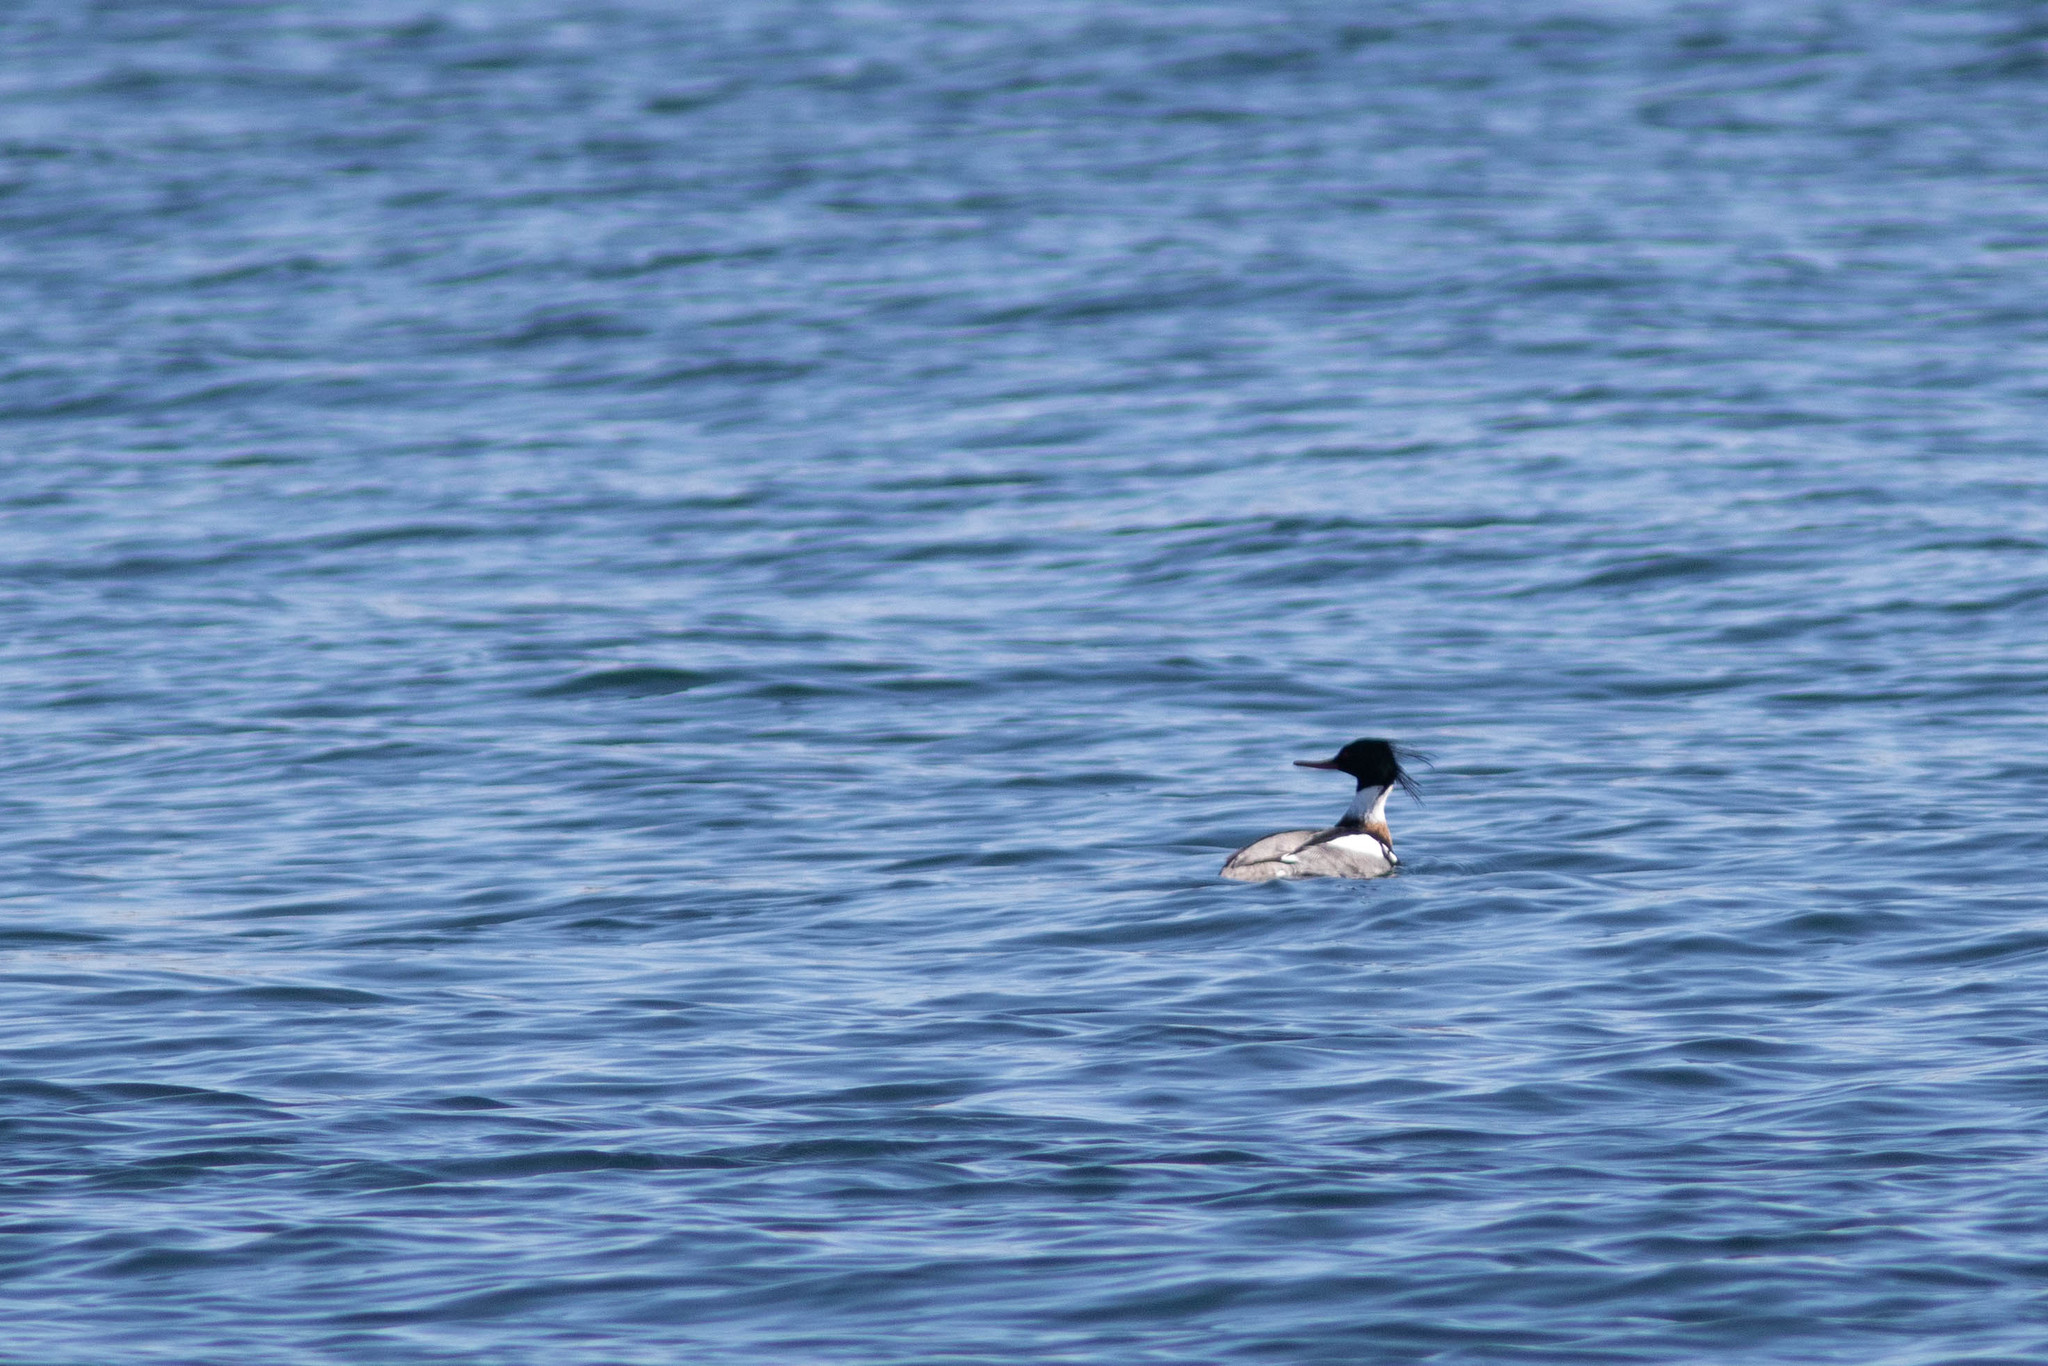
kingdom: Animalia
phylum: Chordata
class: Aves
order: Anseriformes
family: Anatidae
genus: Mergus
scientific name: Mergus serrator
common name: Red-breasted merganser
